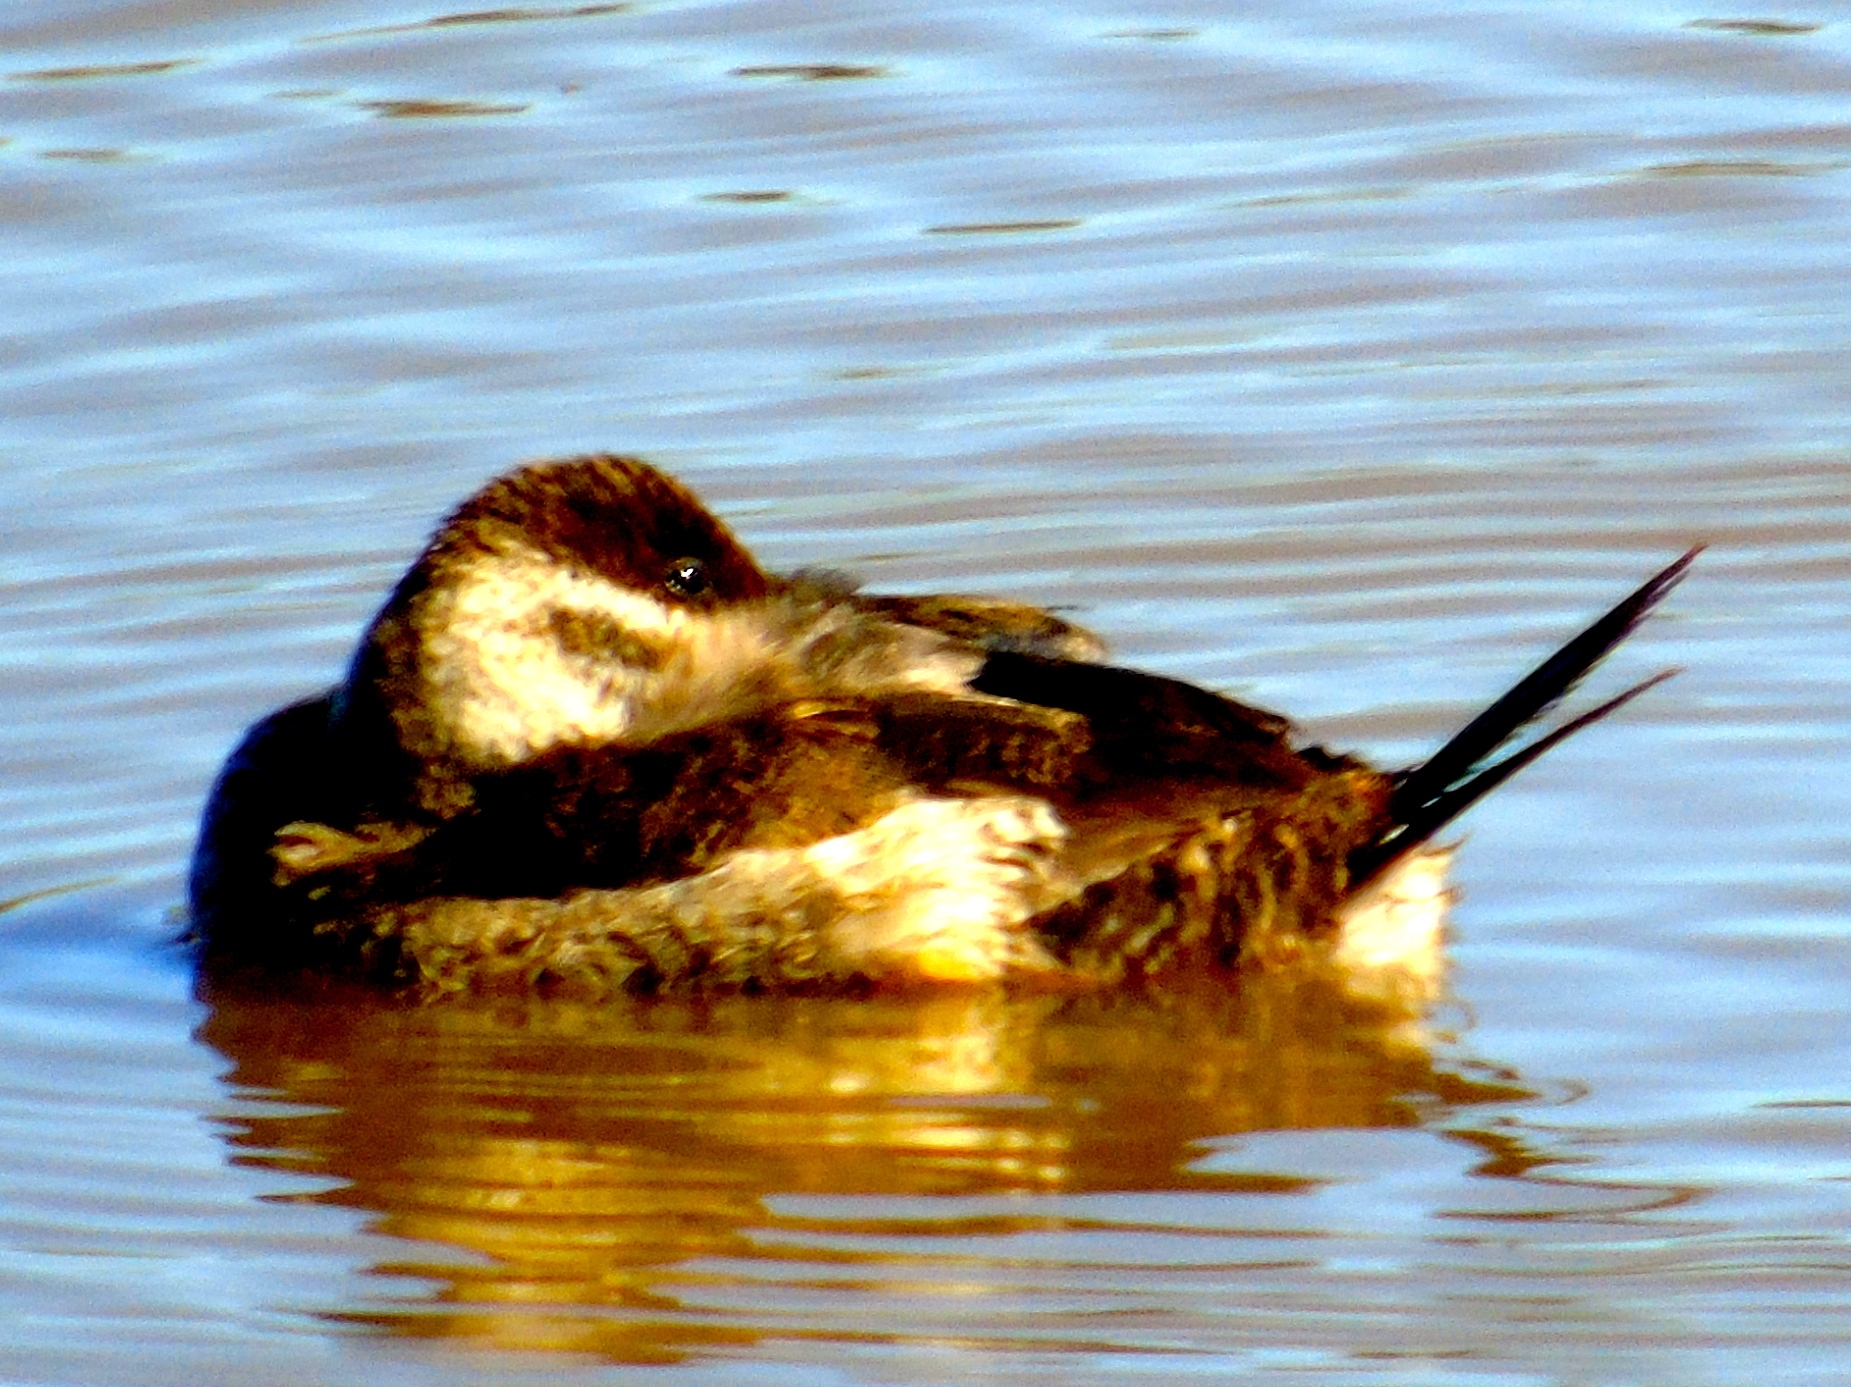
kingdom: Animalia
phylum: Chordata
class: Aves
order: Anseriformes
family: Anatidae
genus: Oxyura
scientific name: Oxyura jamaicensis
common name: Ruddy duck
